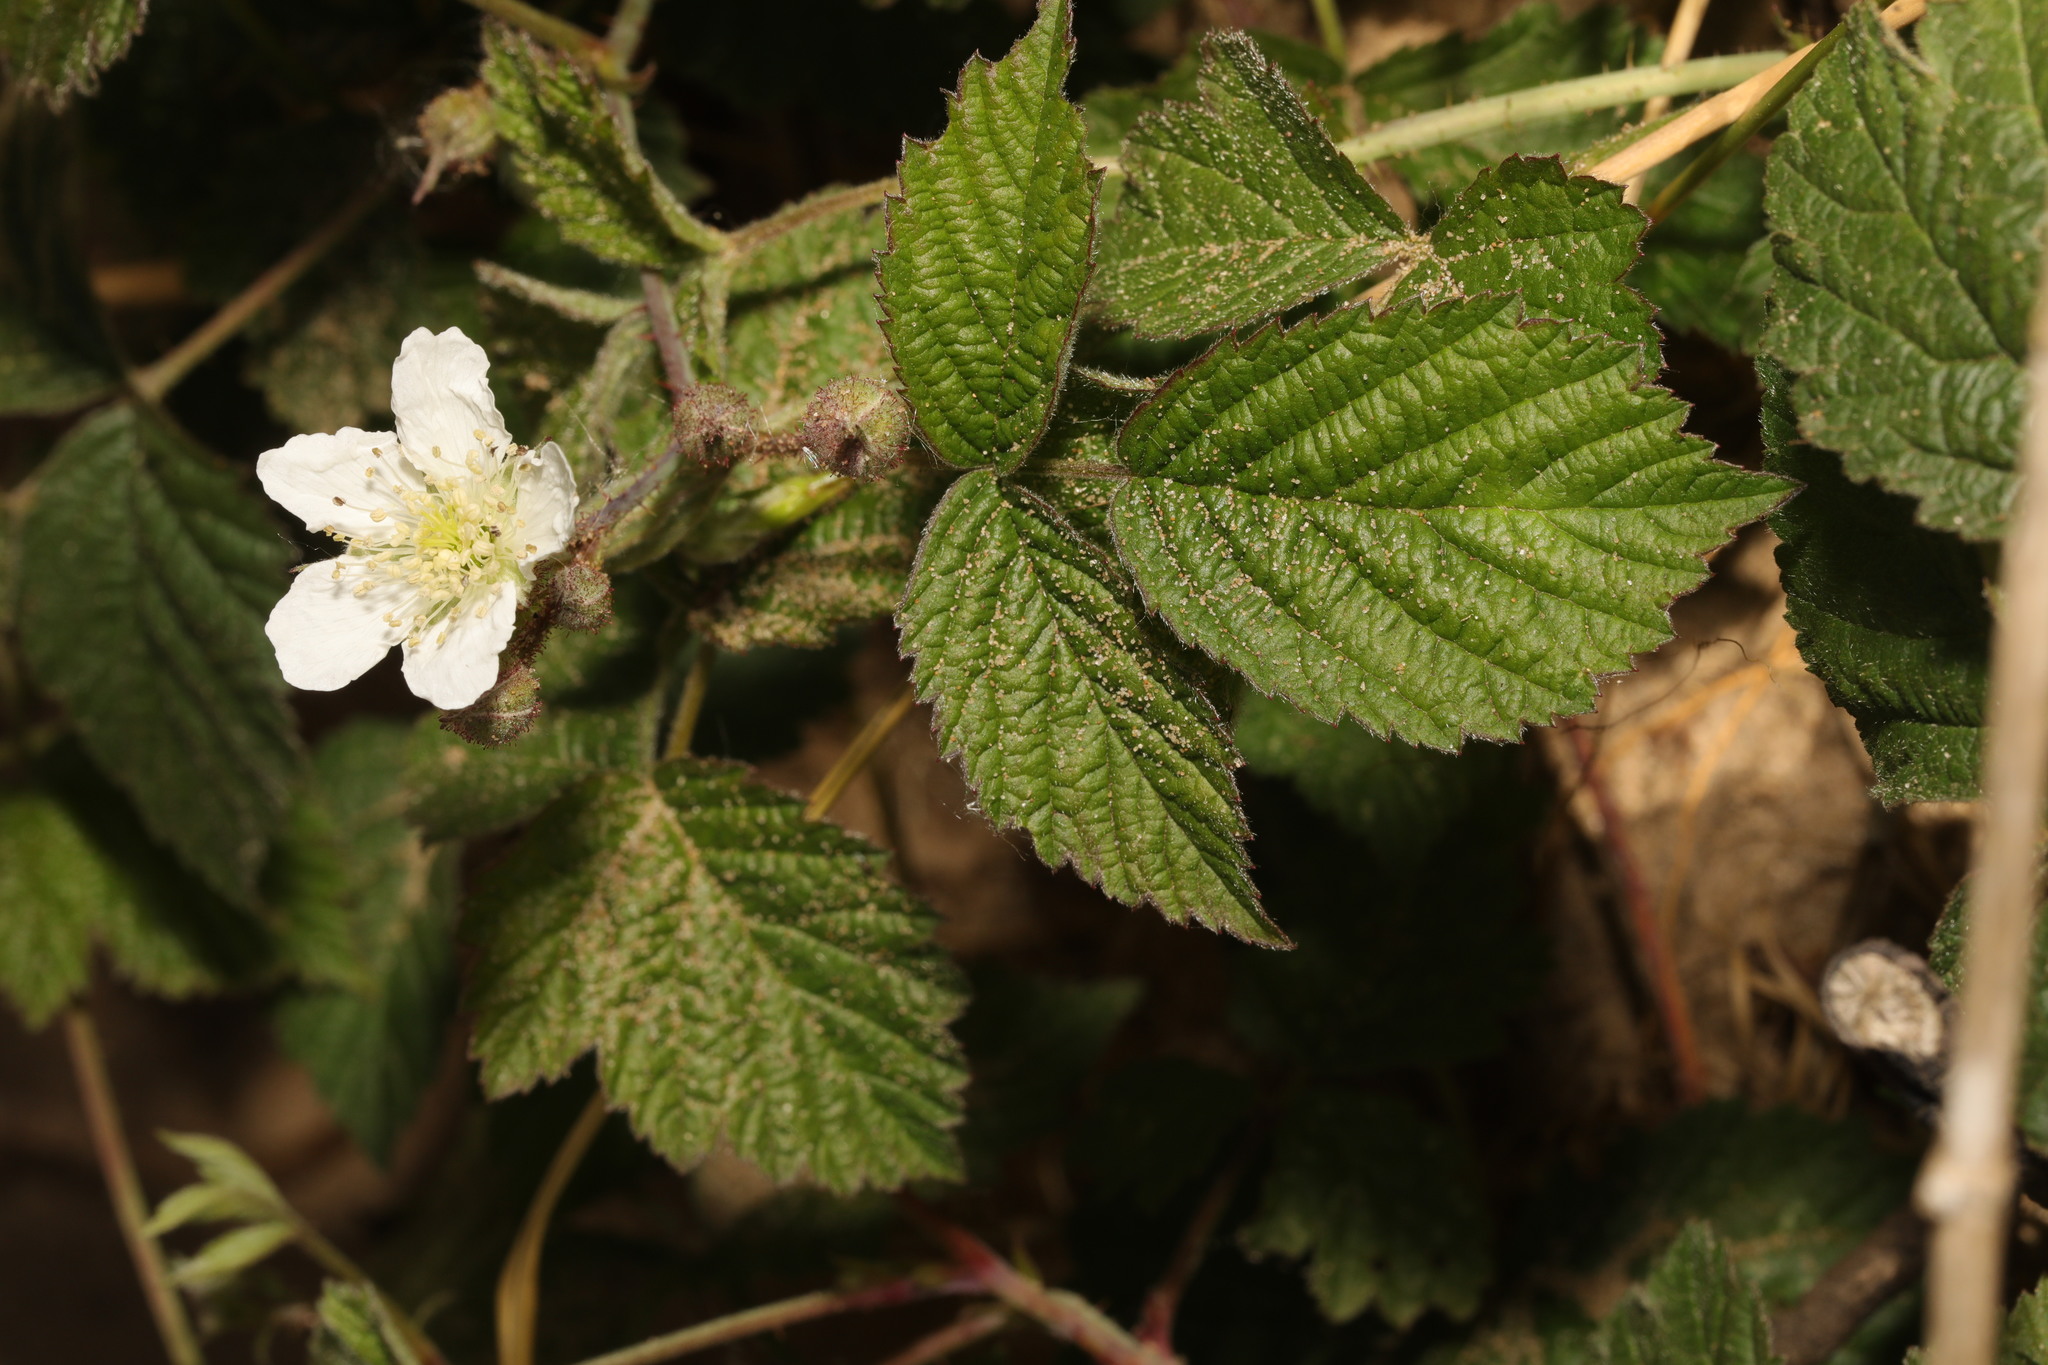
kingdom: Plantae
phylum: Tracheophyta
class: Magnoliopsida
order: Rosales
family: Rosaceae
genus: Rubus
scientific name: Rubus caesius
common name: Dewberry
